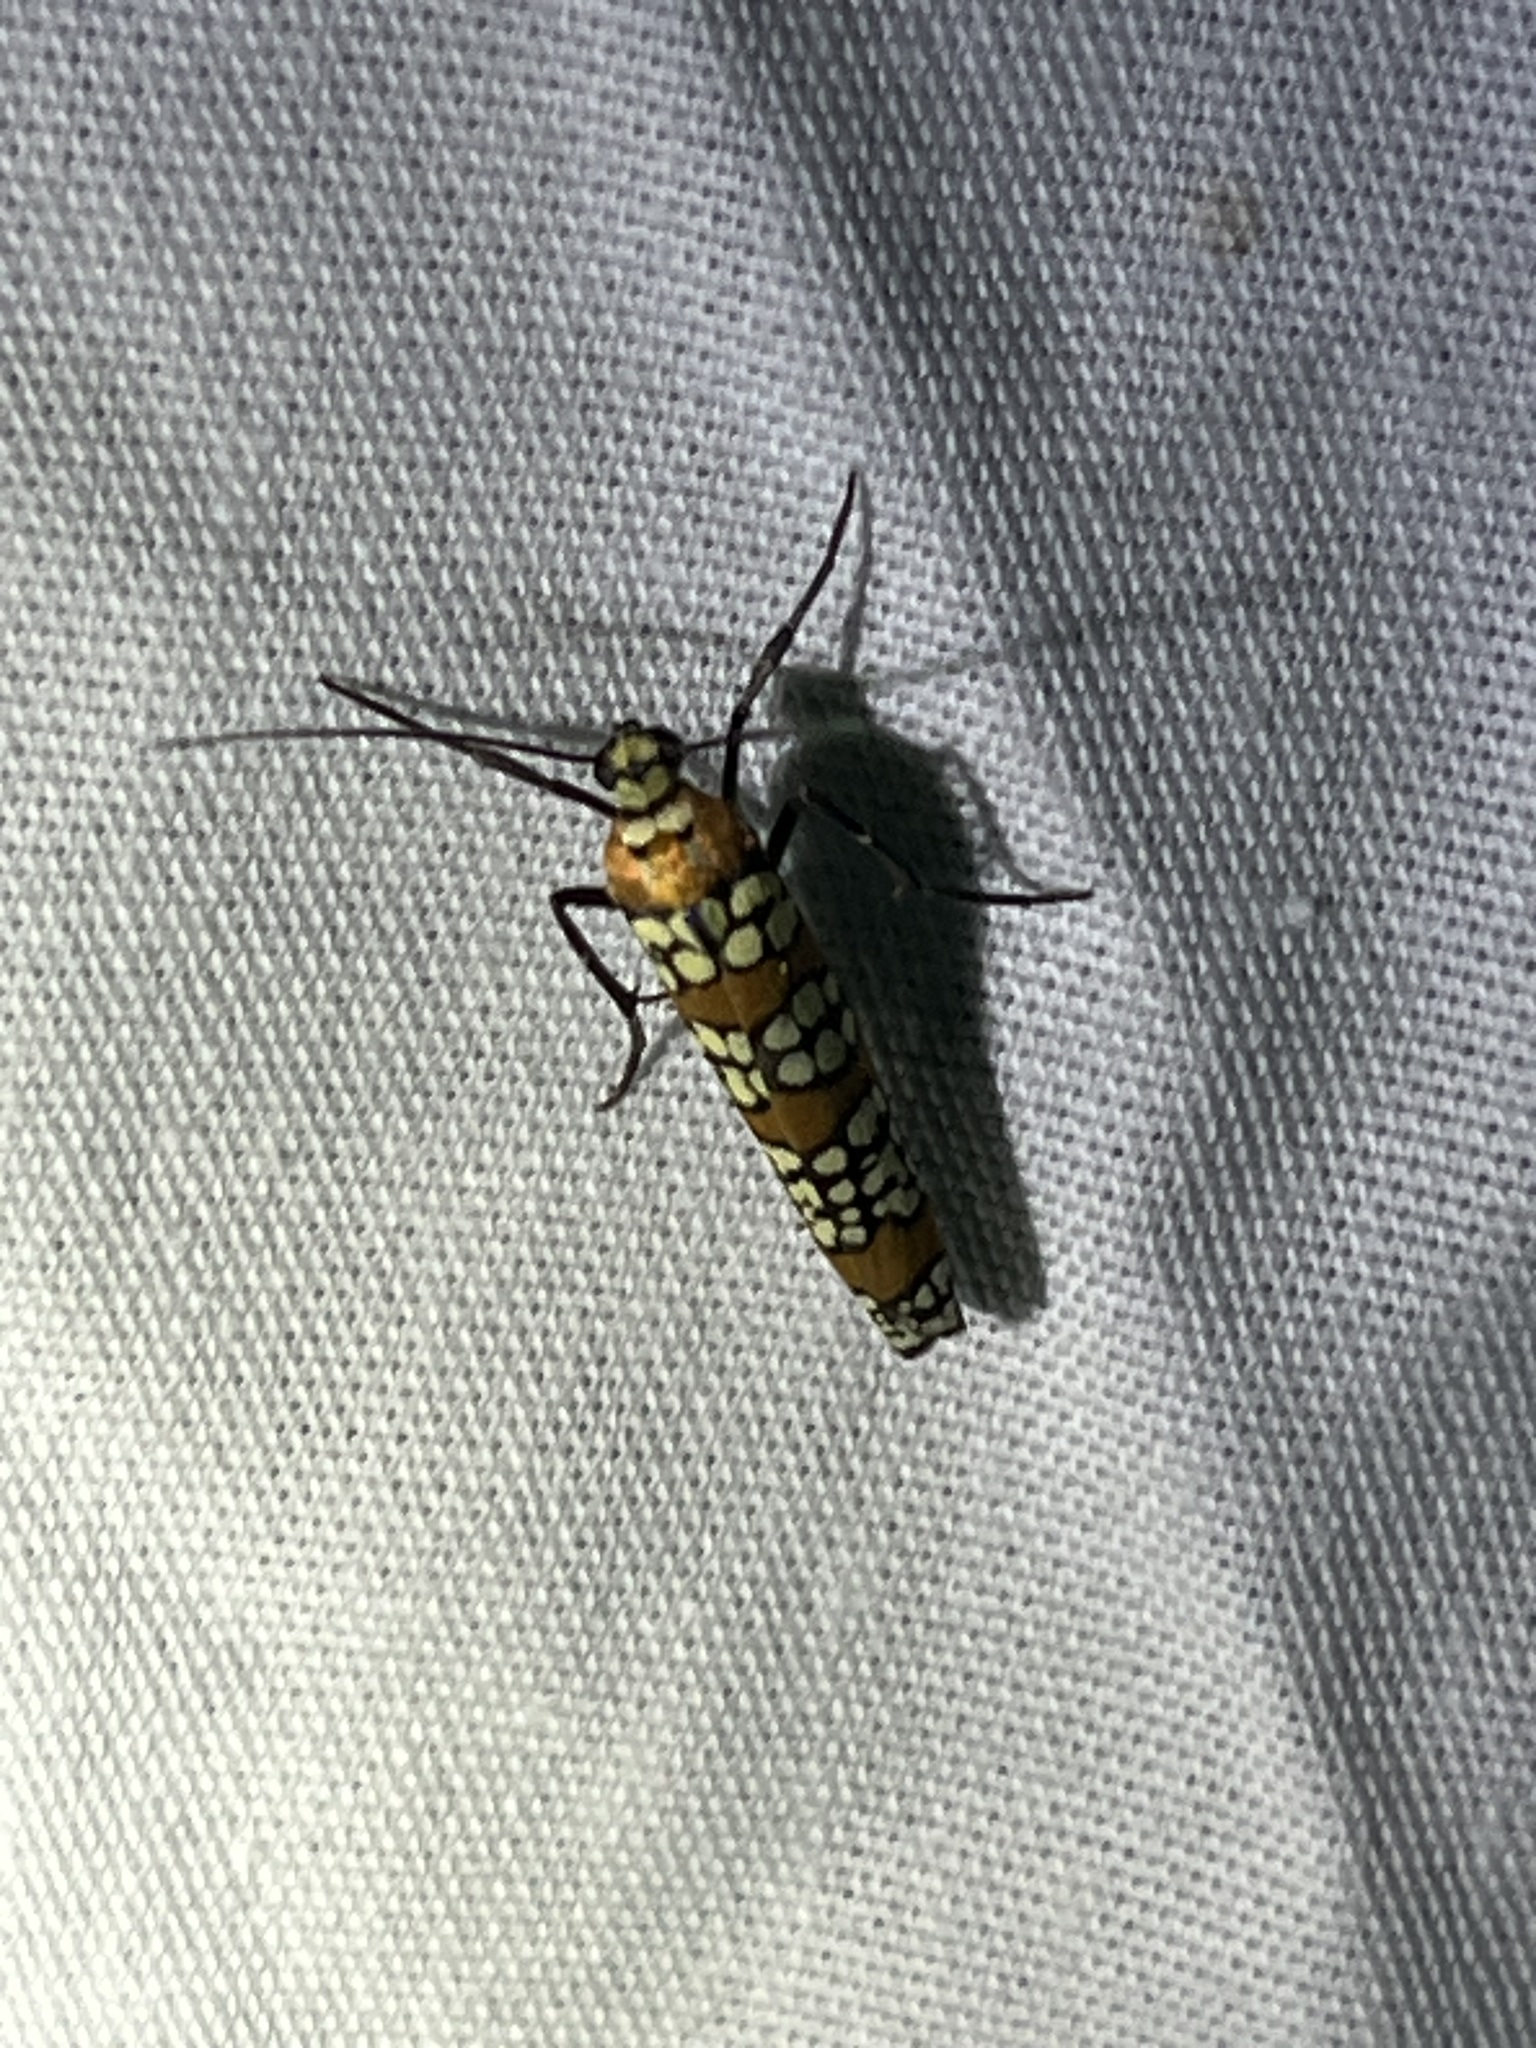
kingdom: Animalia
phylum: Arthropoda
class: Insecta
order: Lepidoptera
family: Attevidae
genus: Atteva
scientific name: Atteva punctella
